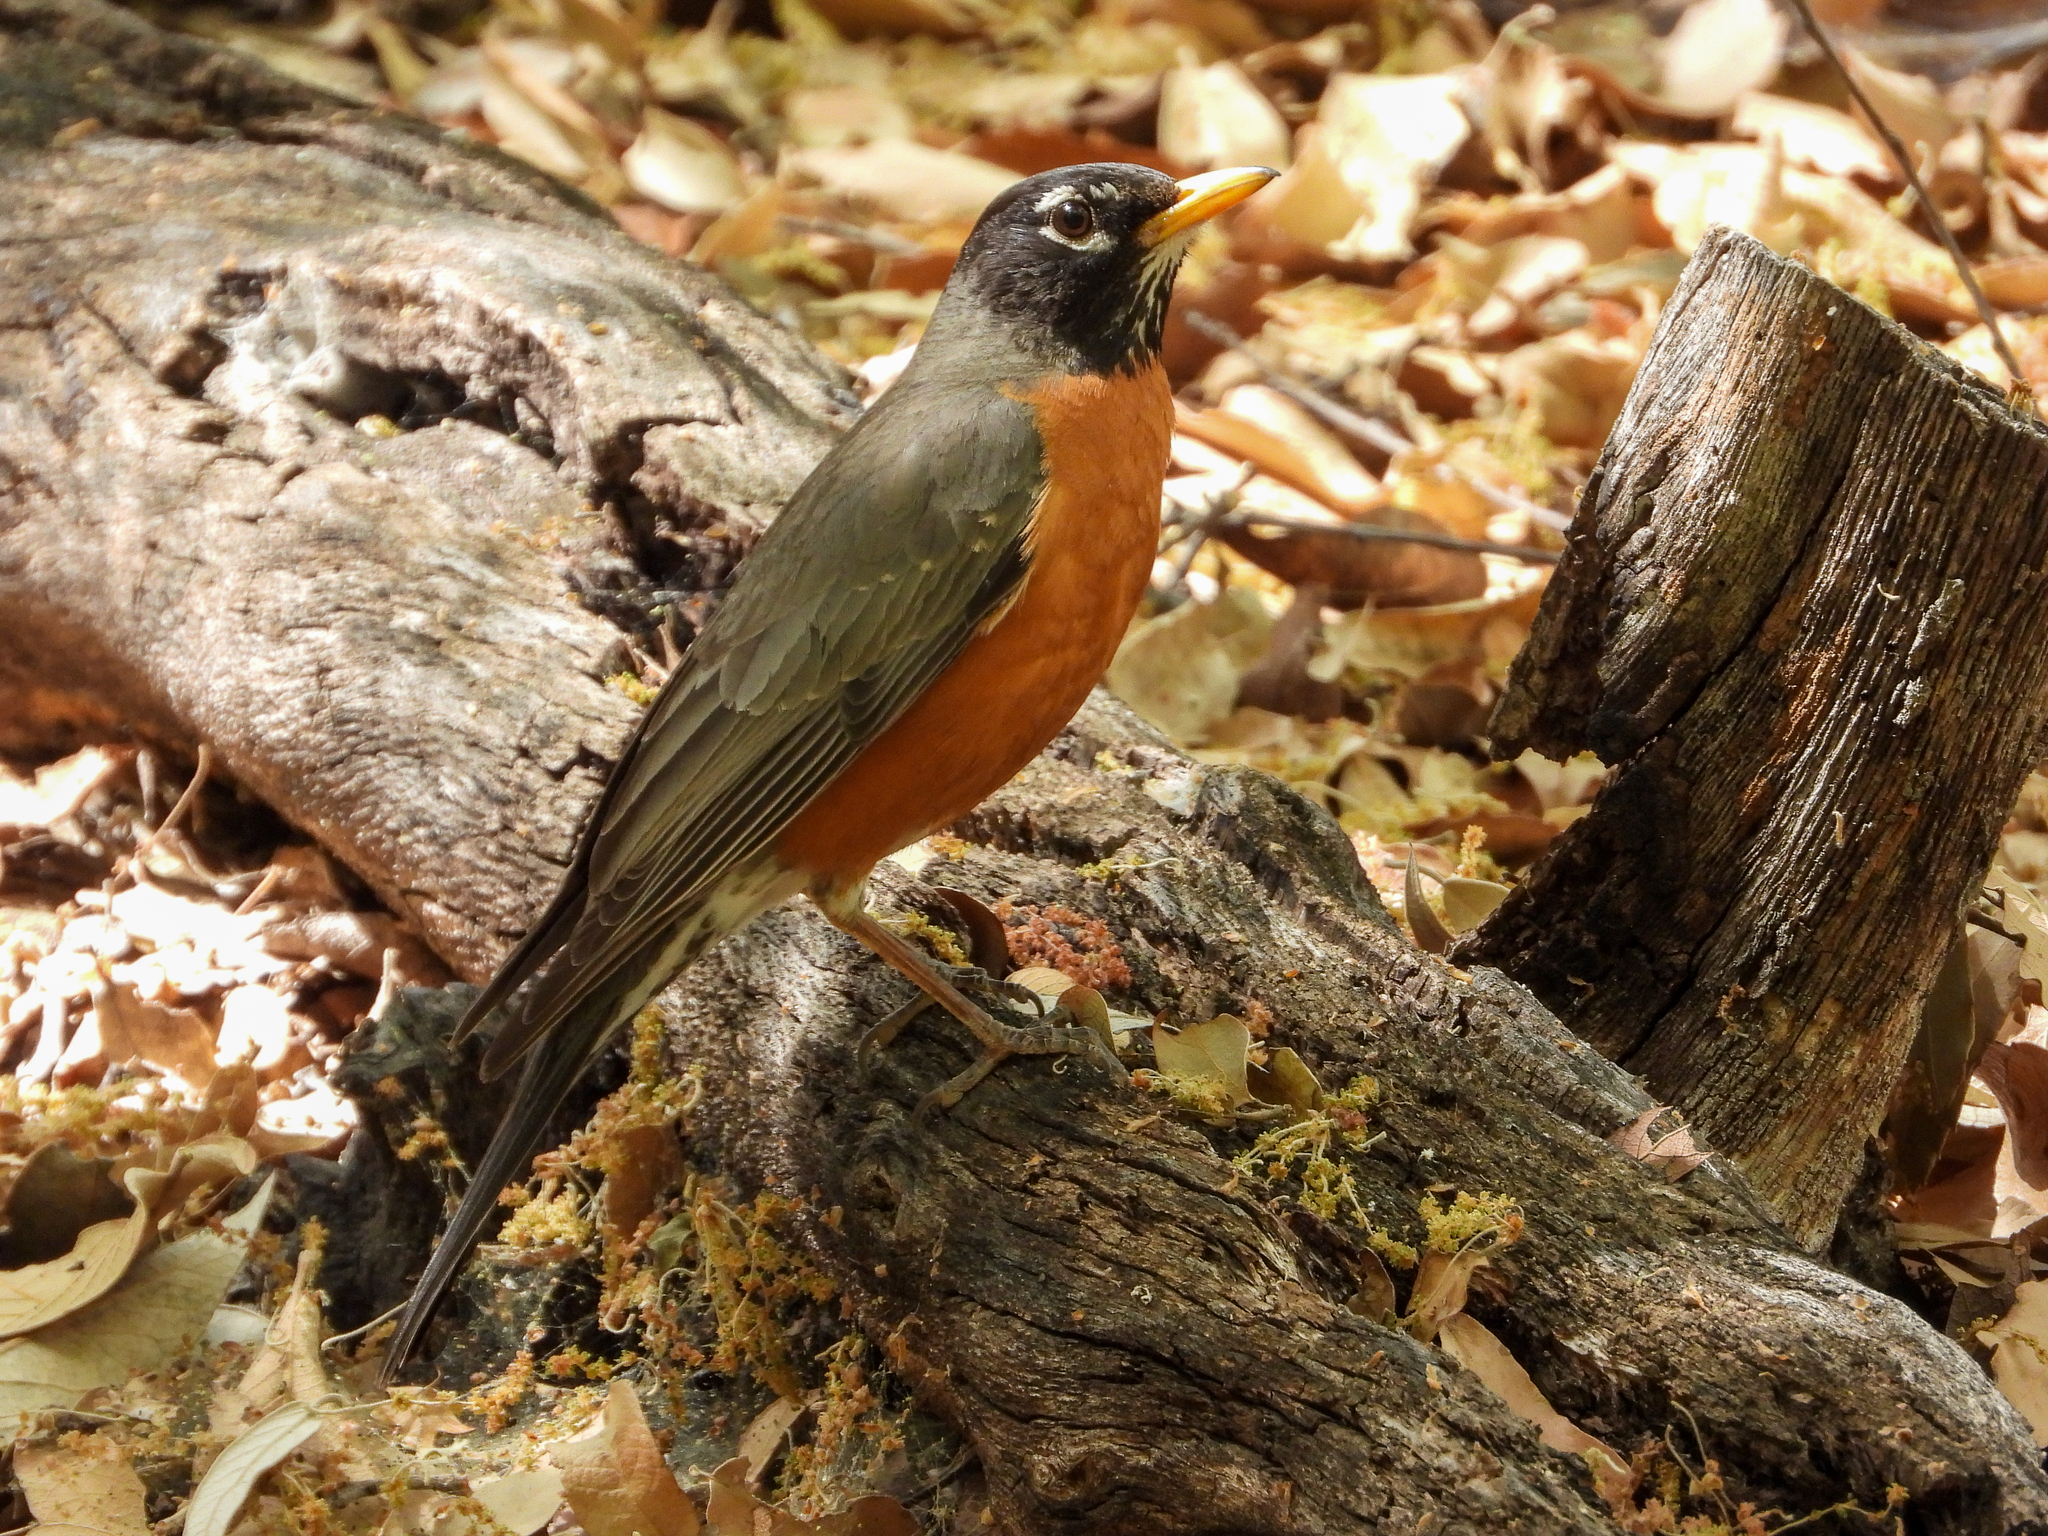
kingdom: Animalia
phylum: Chordata
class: Aves
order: Passeriformes
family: Turdidae
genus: Turdus
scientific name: Turdus migratorius
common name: American robin
